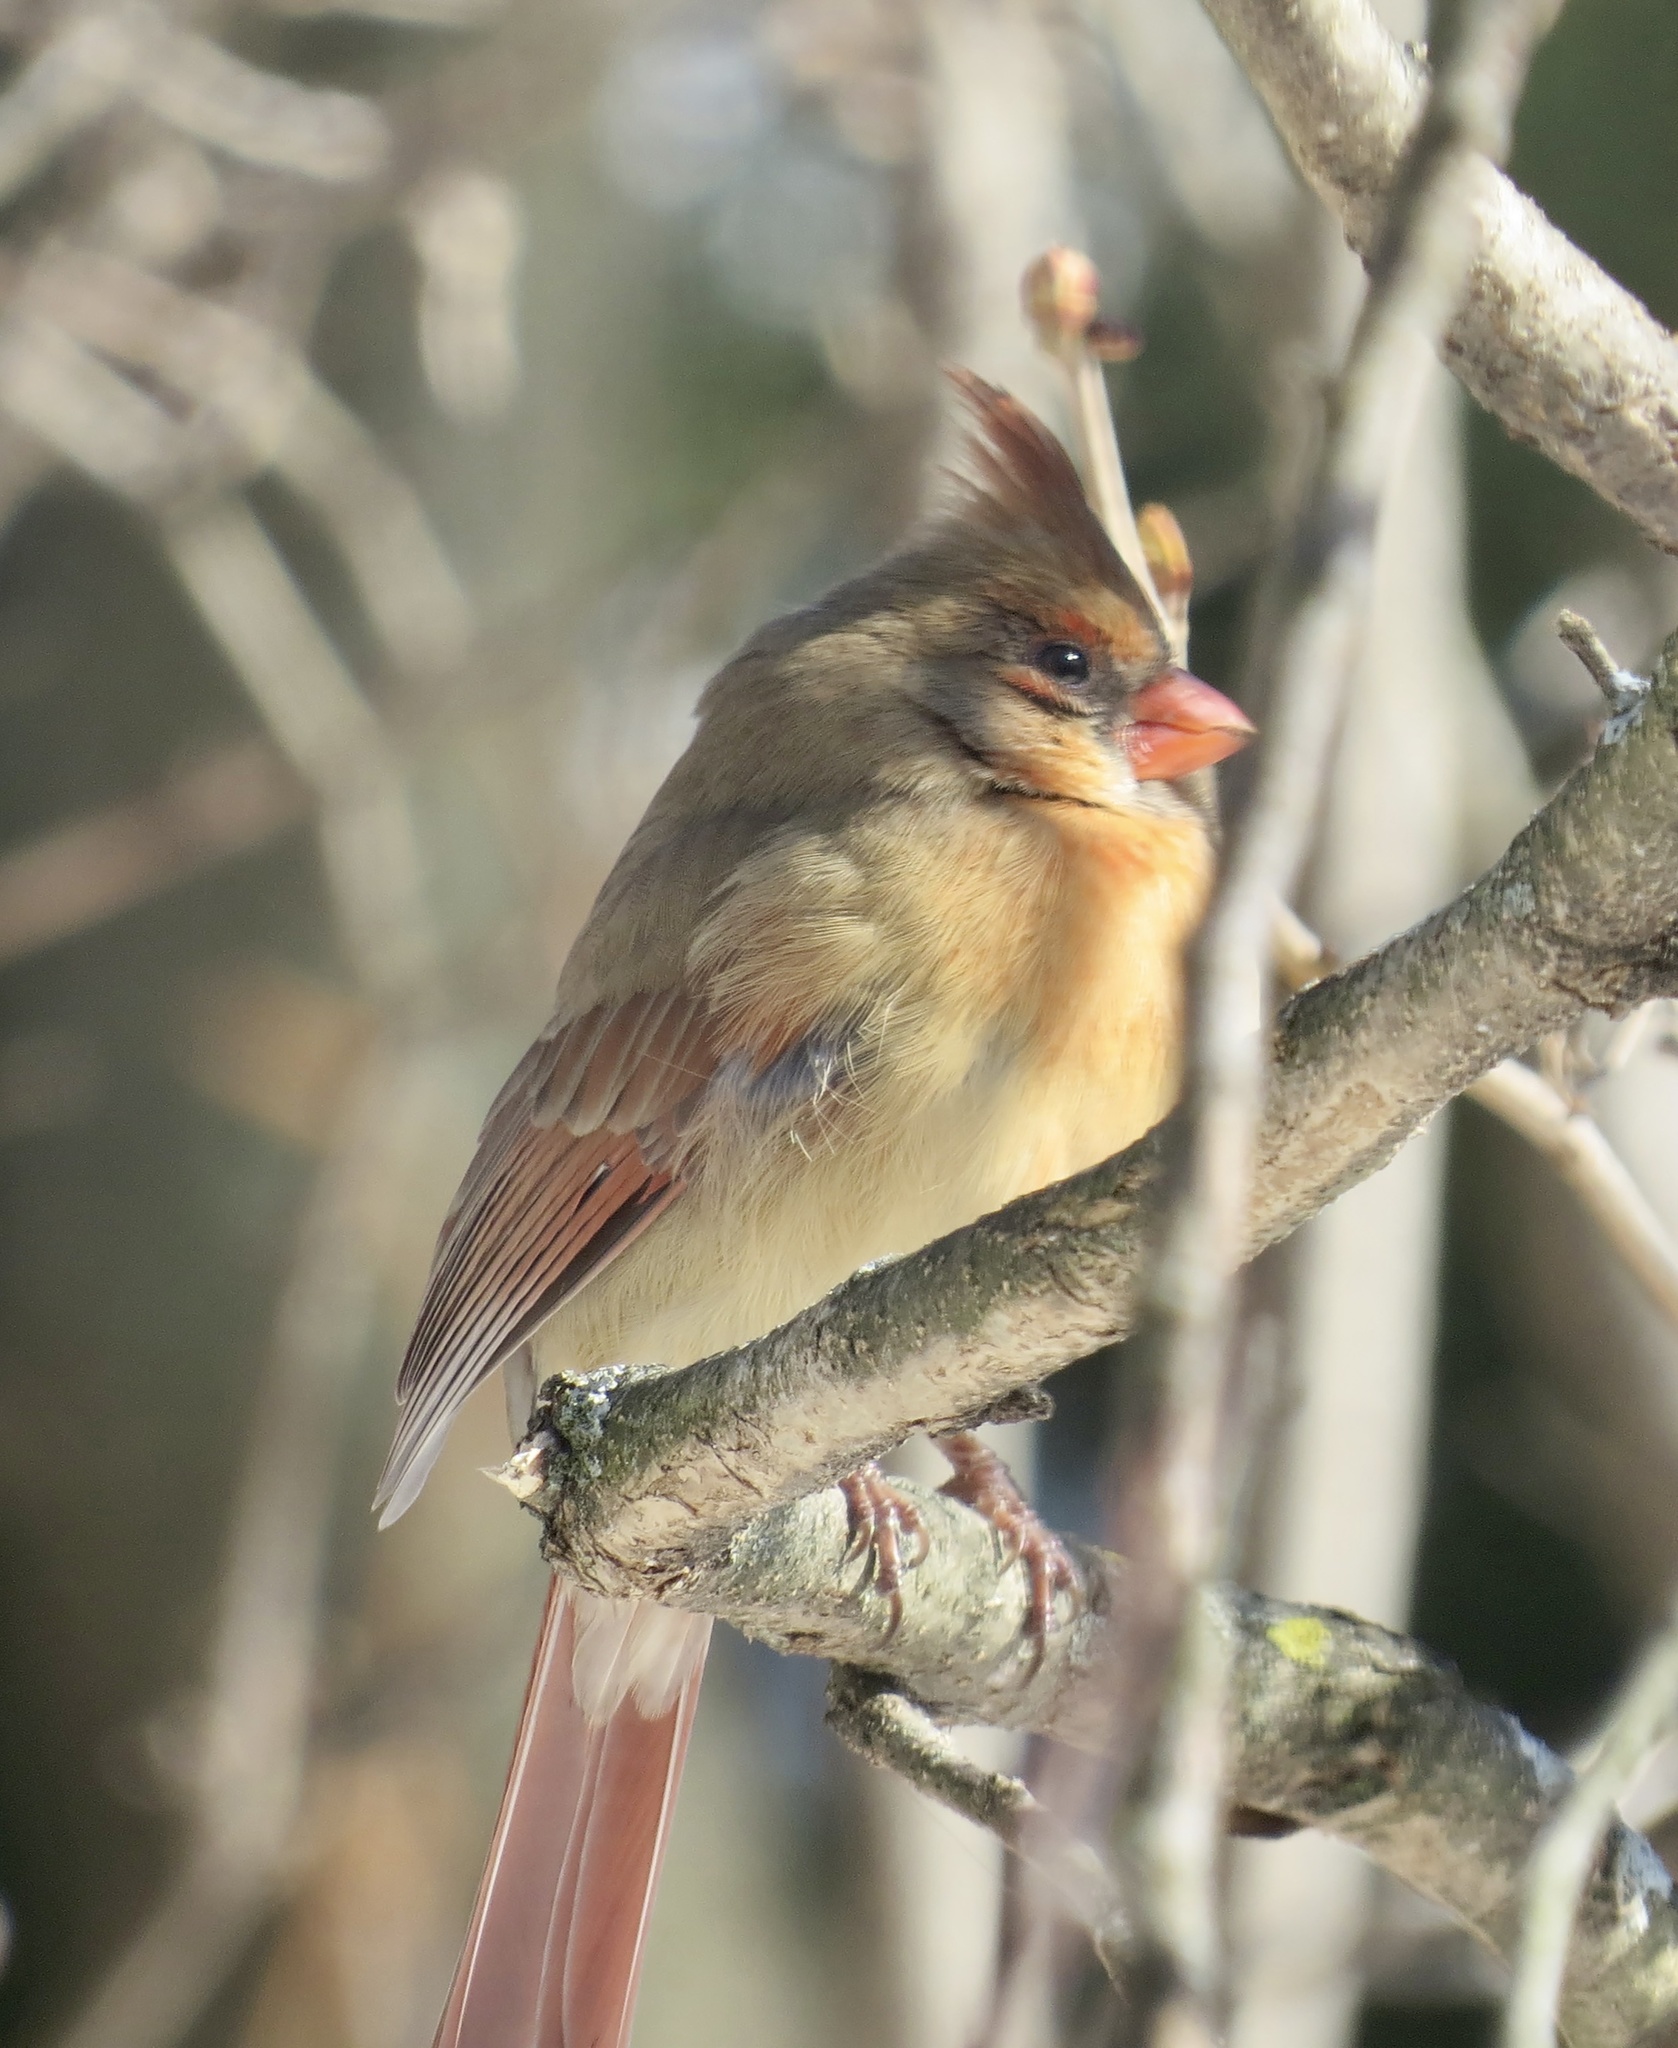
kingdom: Animalia
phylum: Chordata
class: Aves
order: Passeriformes
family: Cardinalidae
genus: Cardinalis
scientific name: Cardinalis cardinalis
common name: Northern cardinal
